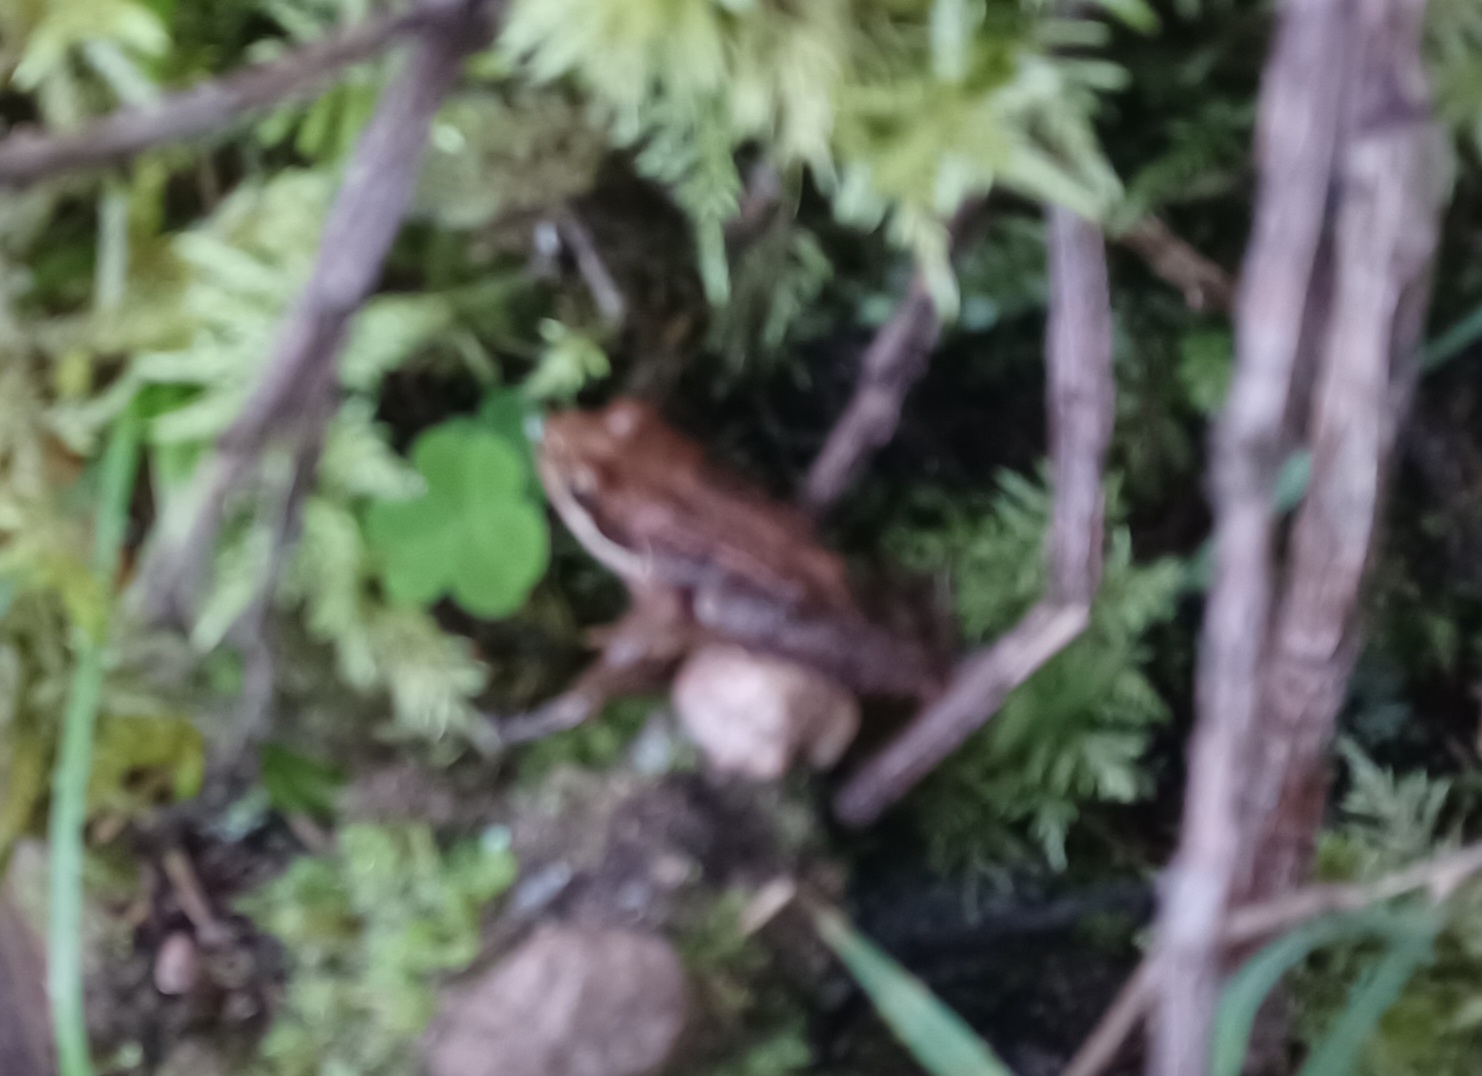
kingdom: Animalia
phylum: Chordata
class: Amphibia
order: Anura
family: Ranidae
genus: Rana
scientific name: Rana temporaria
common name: Common frog
